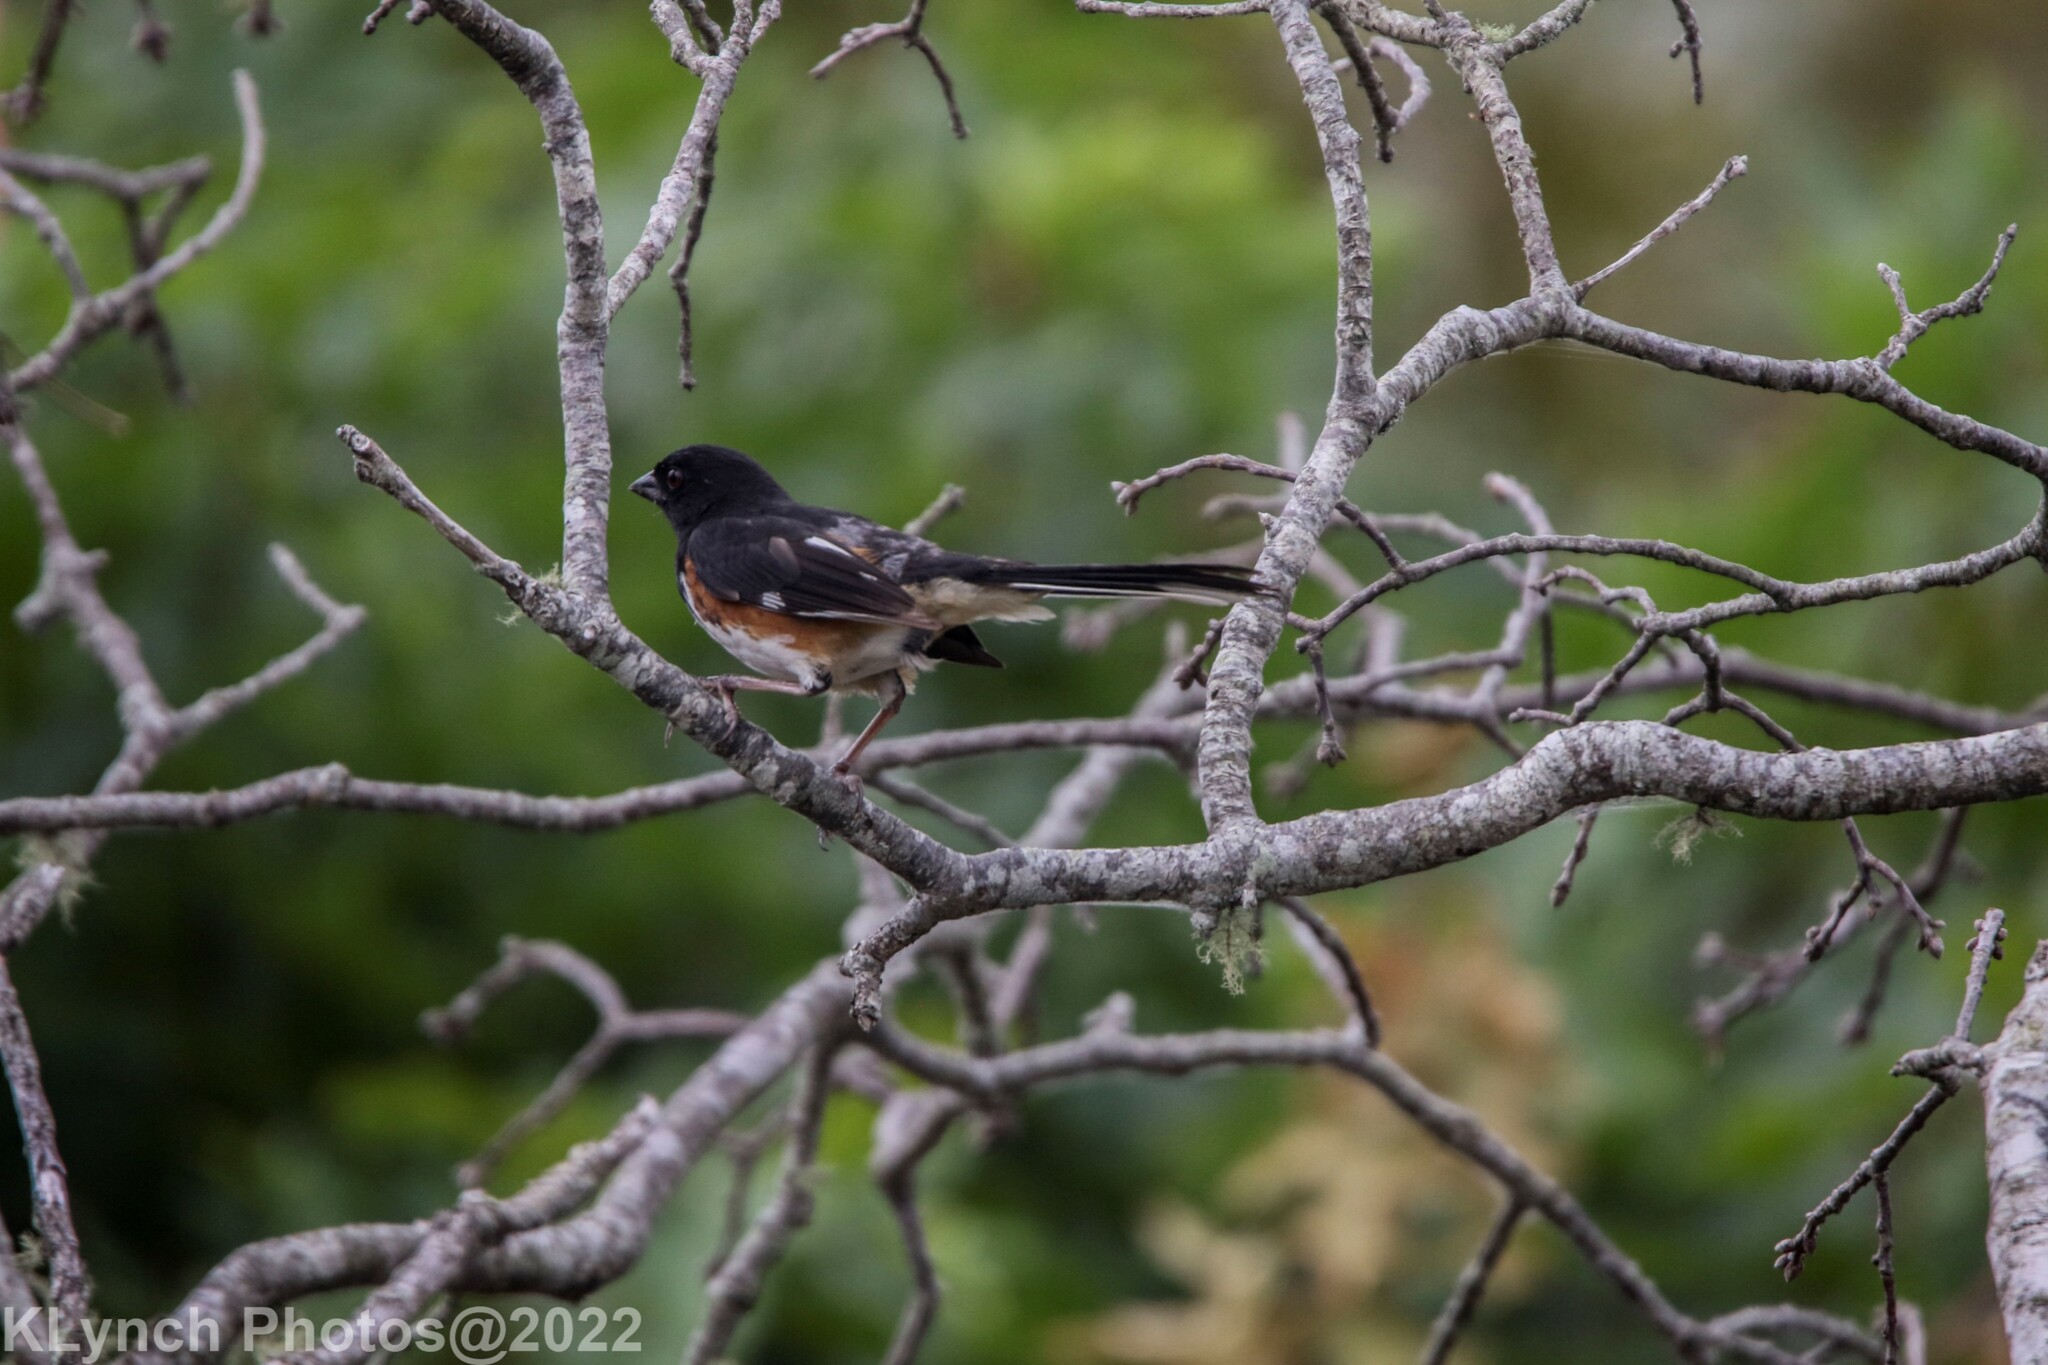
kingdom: Animalia
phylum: Chordata
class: Aves
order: Passeriformes
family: Passerellidae
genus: Pipilo
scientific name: Pipilo erythrophthalmus
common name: Eastern towhee
